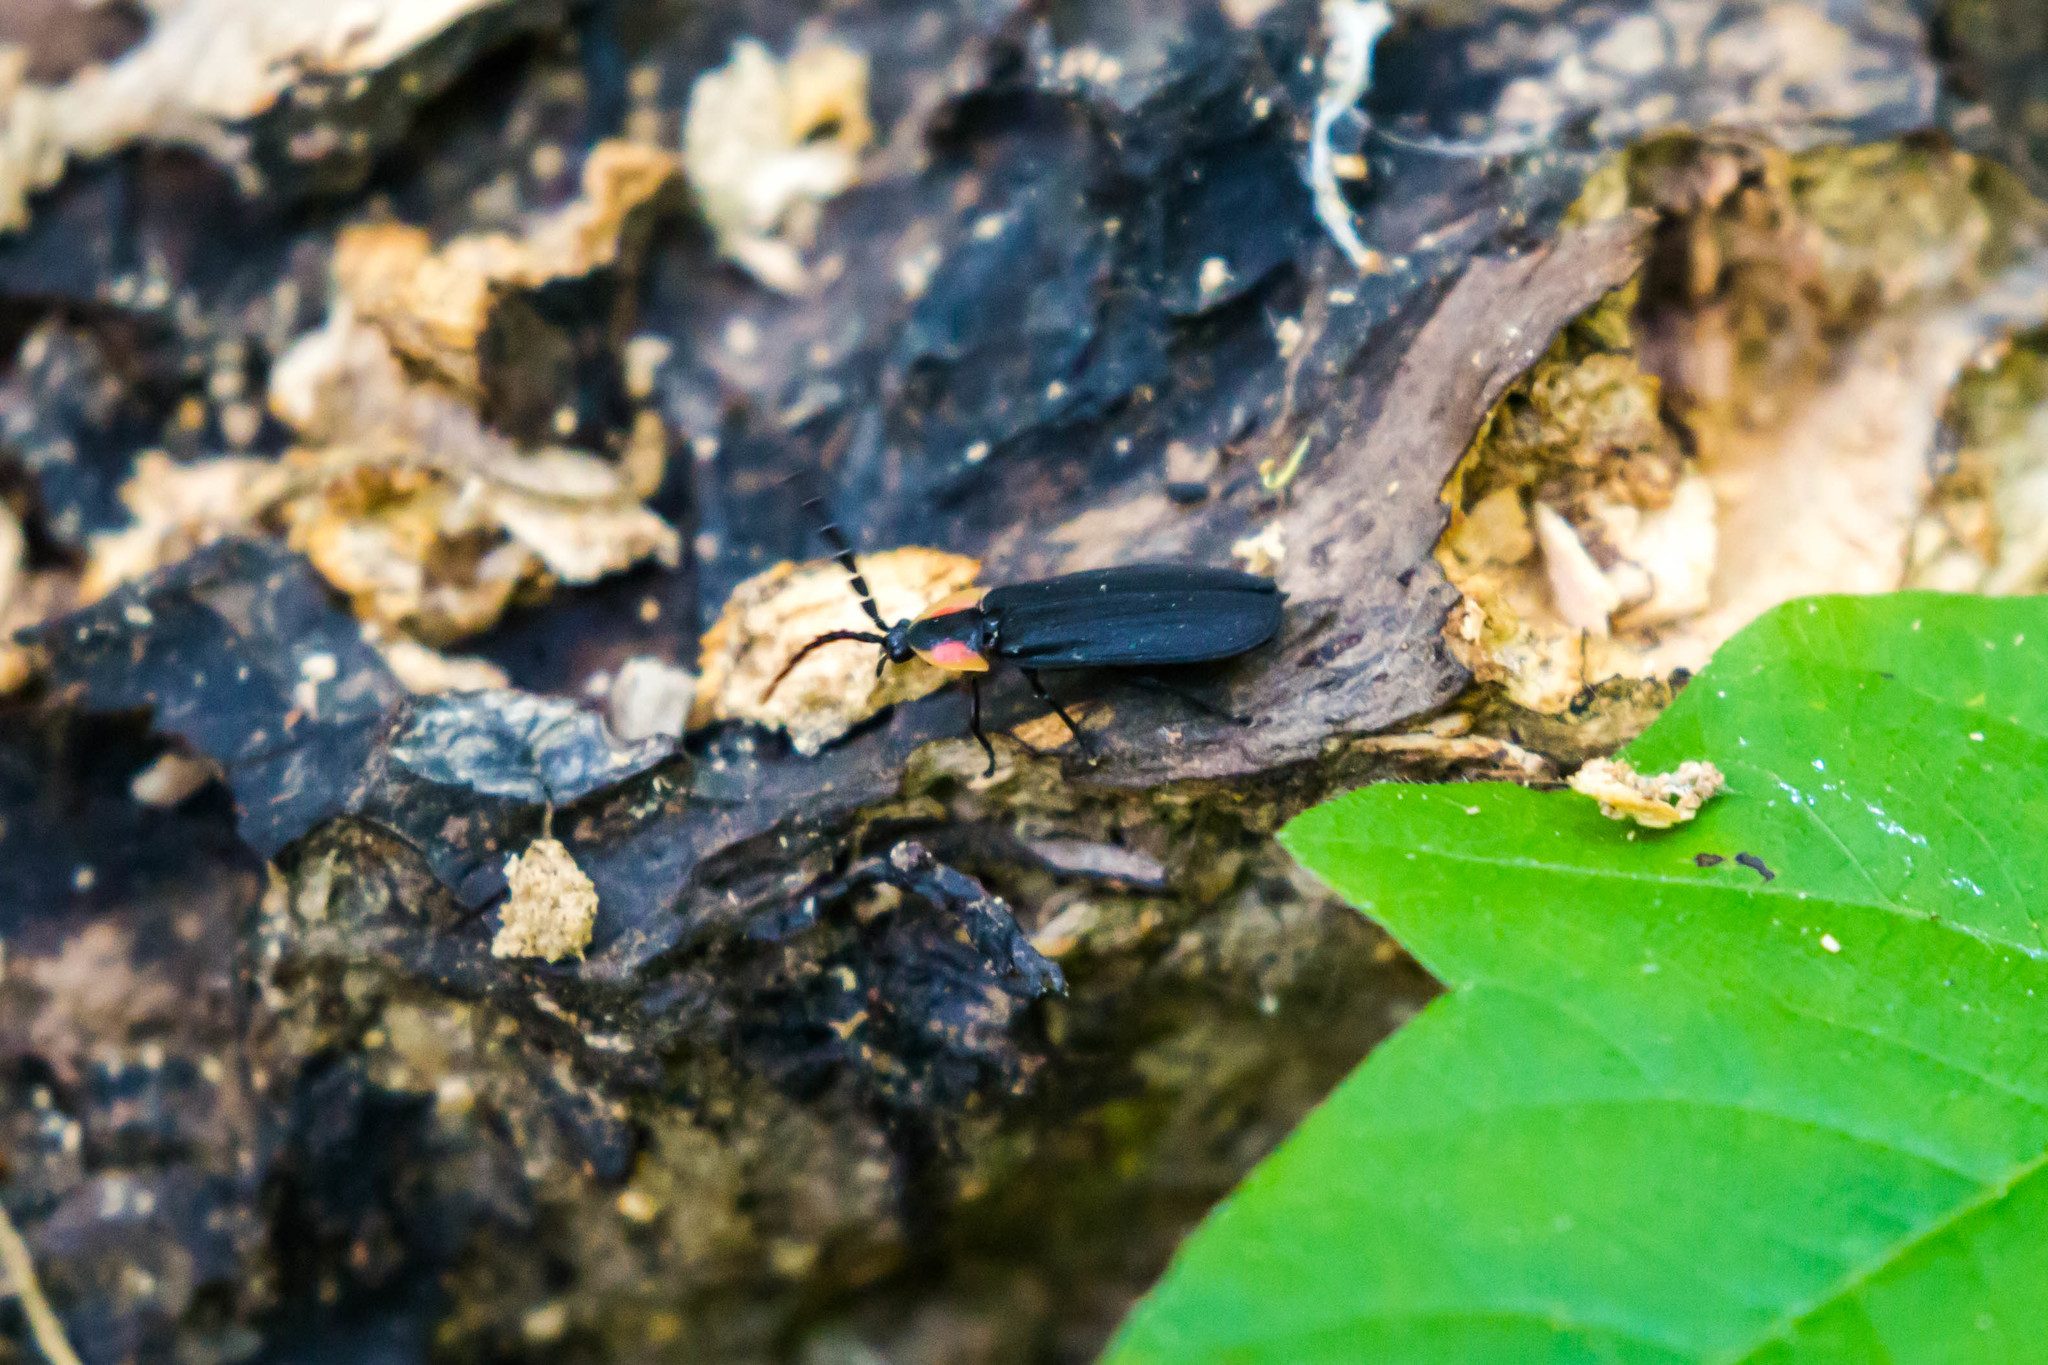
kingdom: Animalia
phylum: Arthropoda
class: Insecta
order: Coleoptera
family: Lampyridae
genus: Lucidota
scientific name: Lucidota atra
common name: Black firefly
